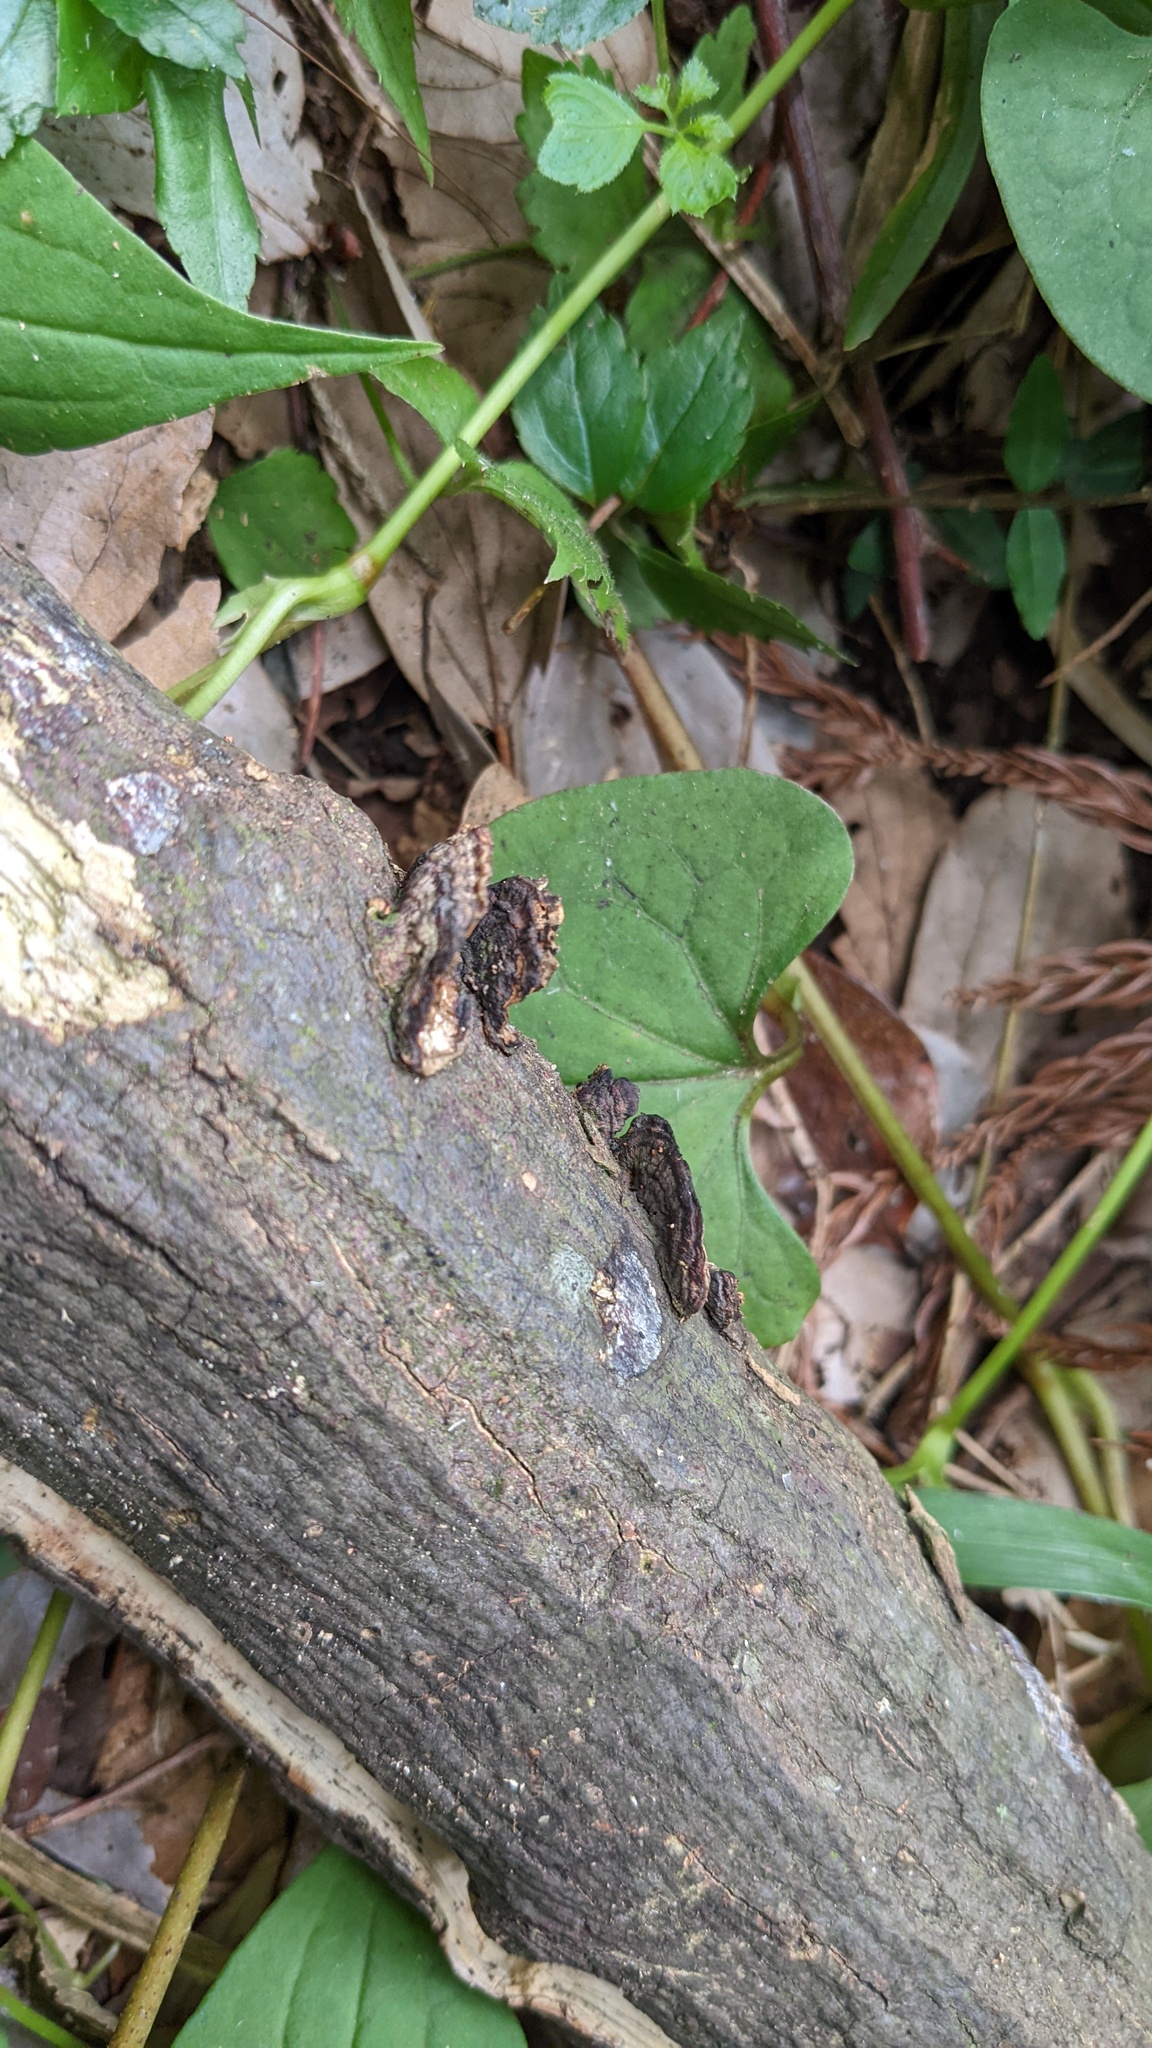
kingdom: Fungi
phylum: Basidiomycota
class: Agaricomycetes
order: Polyporales
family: Polyporaceae
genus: Lenzites
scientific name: Lenzites styracinus
